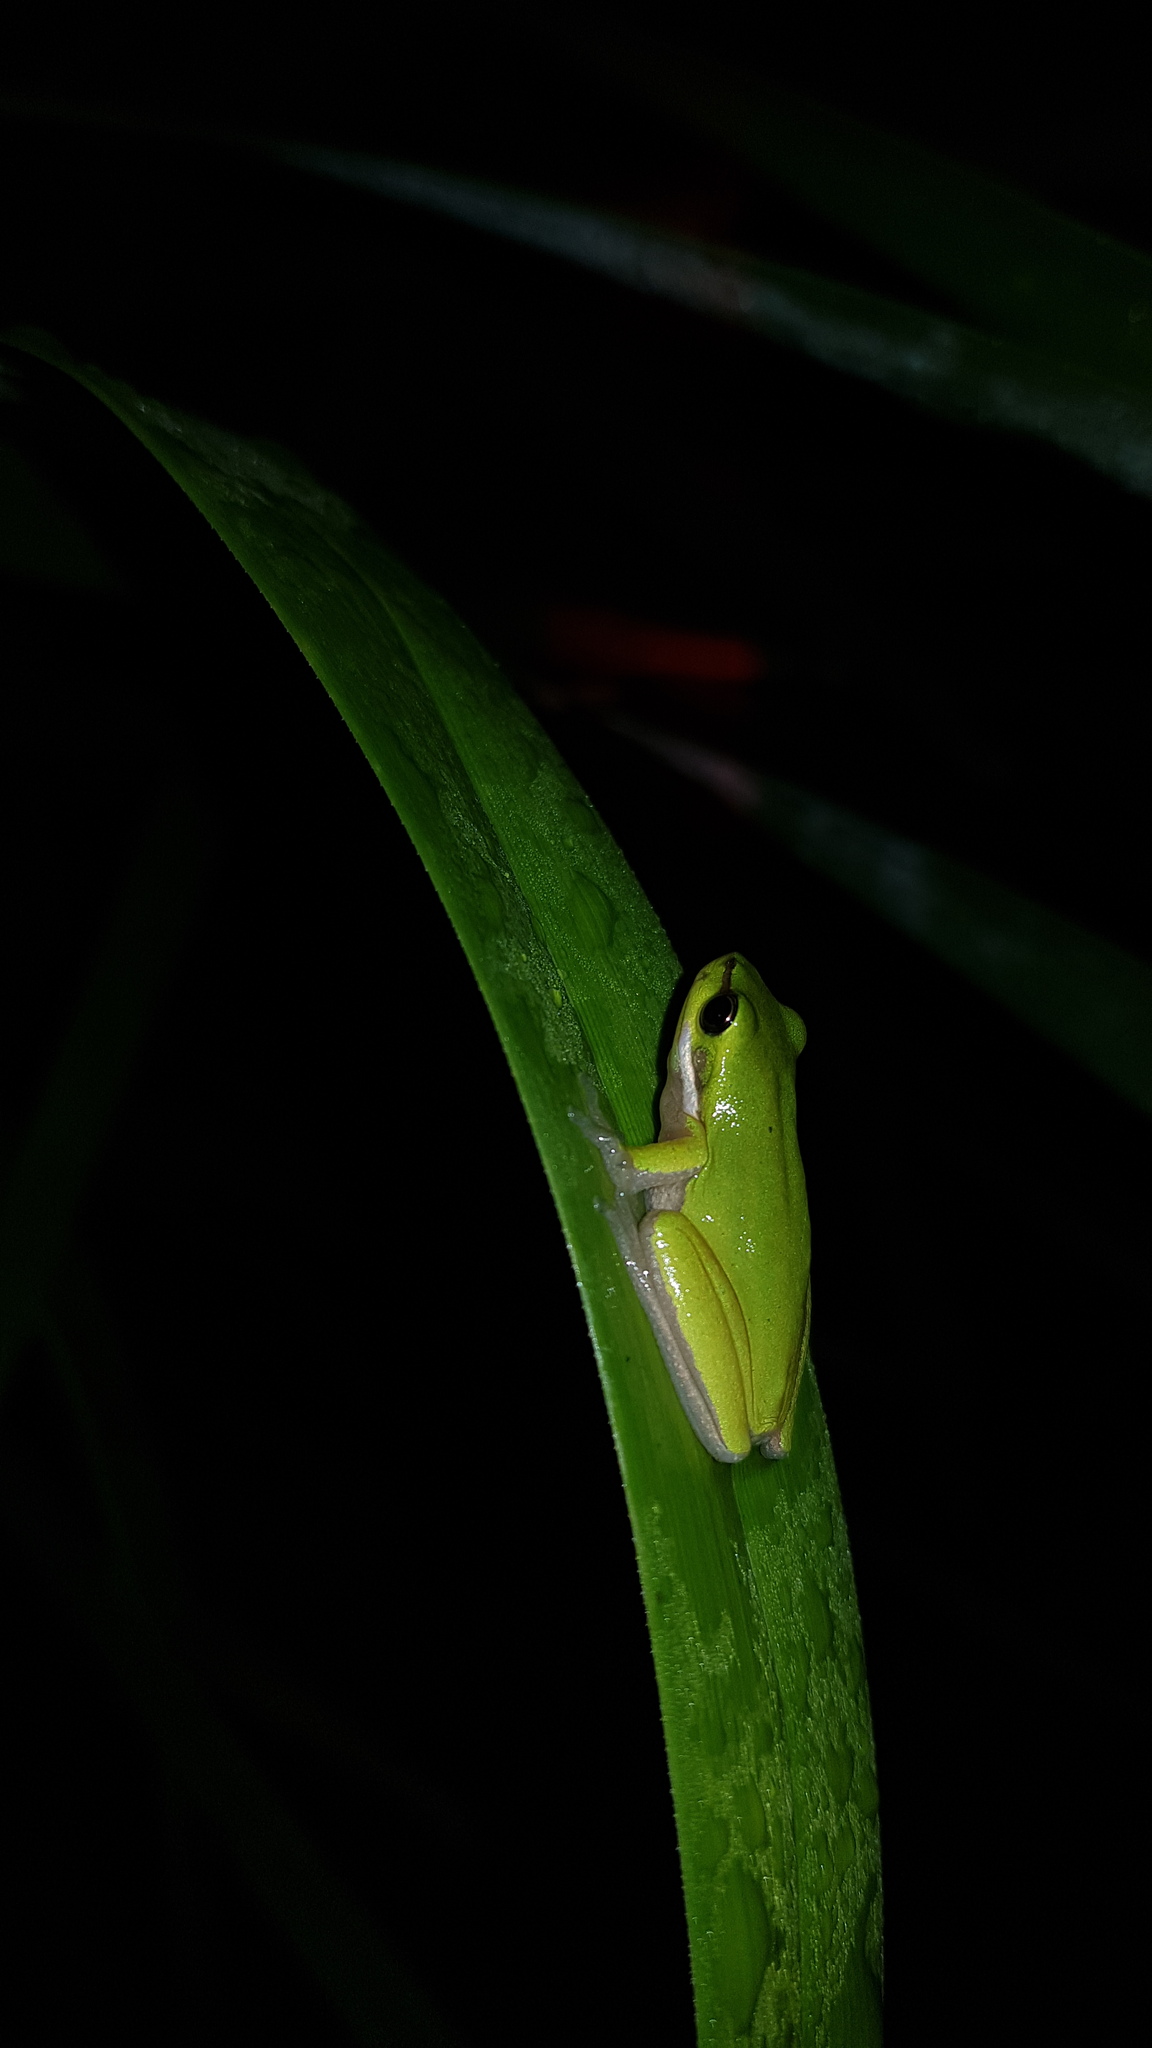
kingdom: Animalia
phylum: Chordata
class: Amphibia
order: Anura
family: Pelodryadidae
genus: Litoria
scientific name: Litoria fallax
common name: Eastern dwarf treefrog
